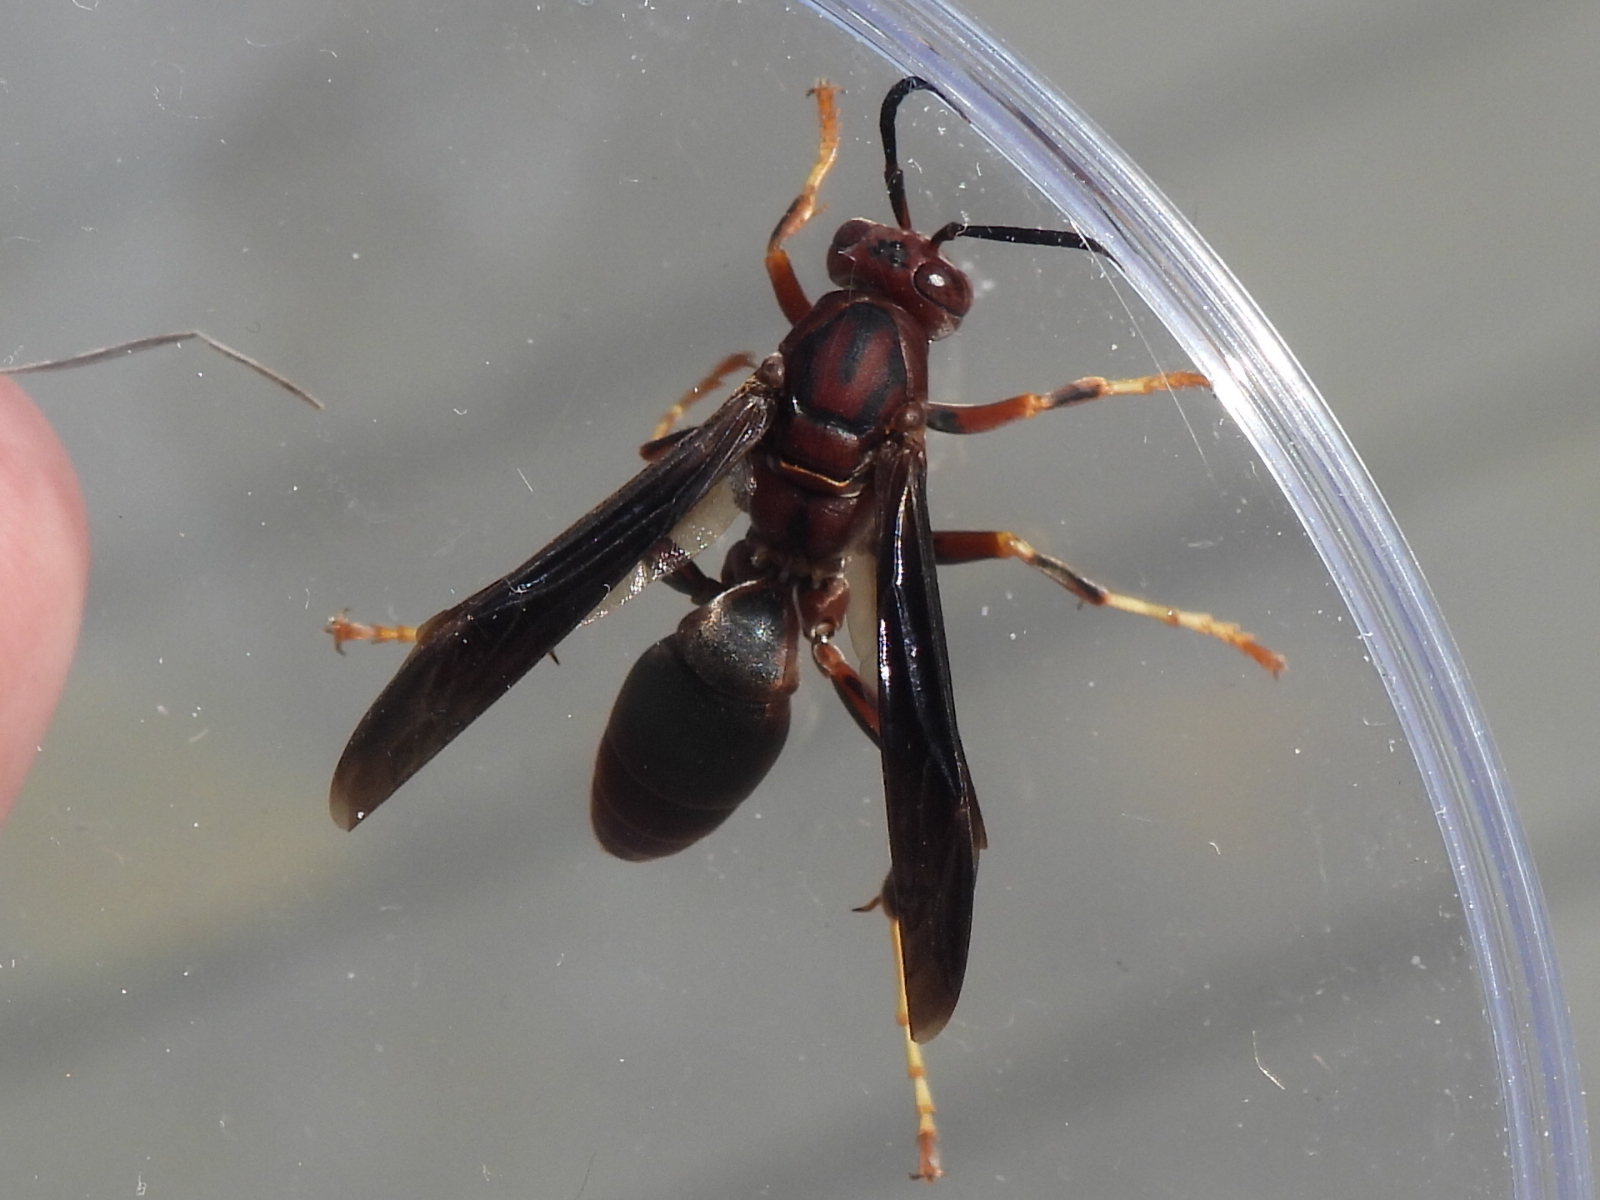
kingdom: Animalia
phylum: Arthropoda
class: Insecta
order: Hymenoptera
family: Eumenidae
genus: Polistes
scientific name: Polistes metricus
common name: Metric paper wasp
